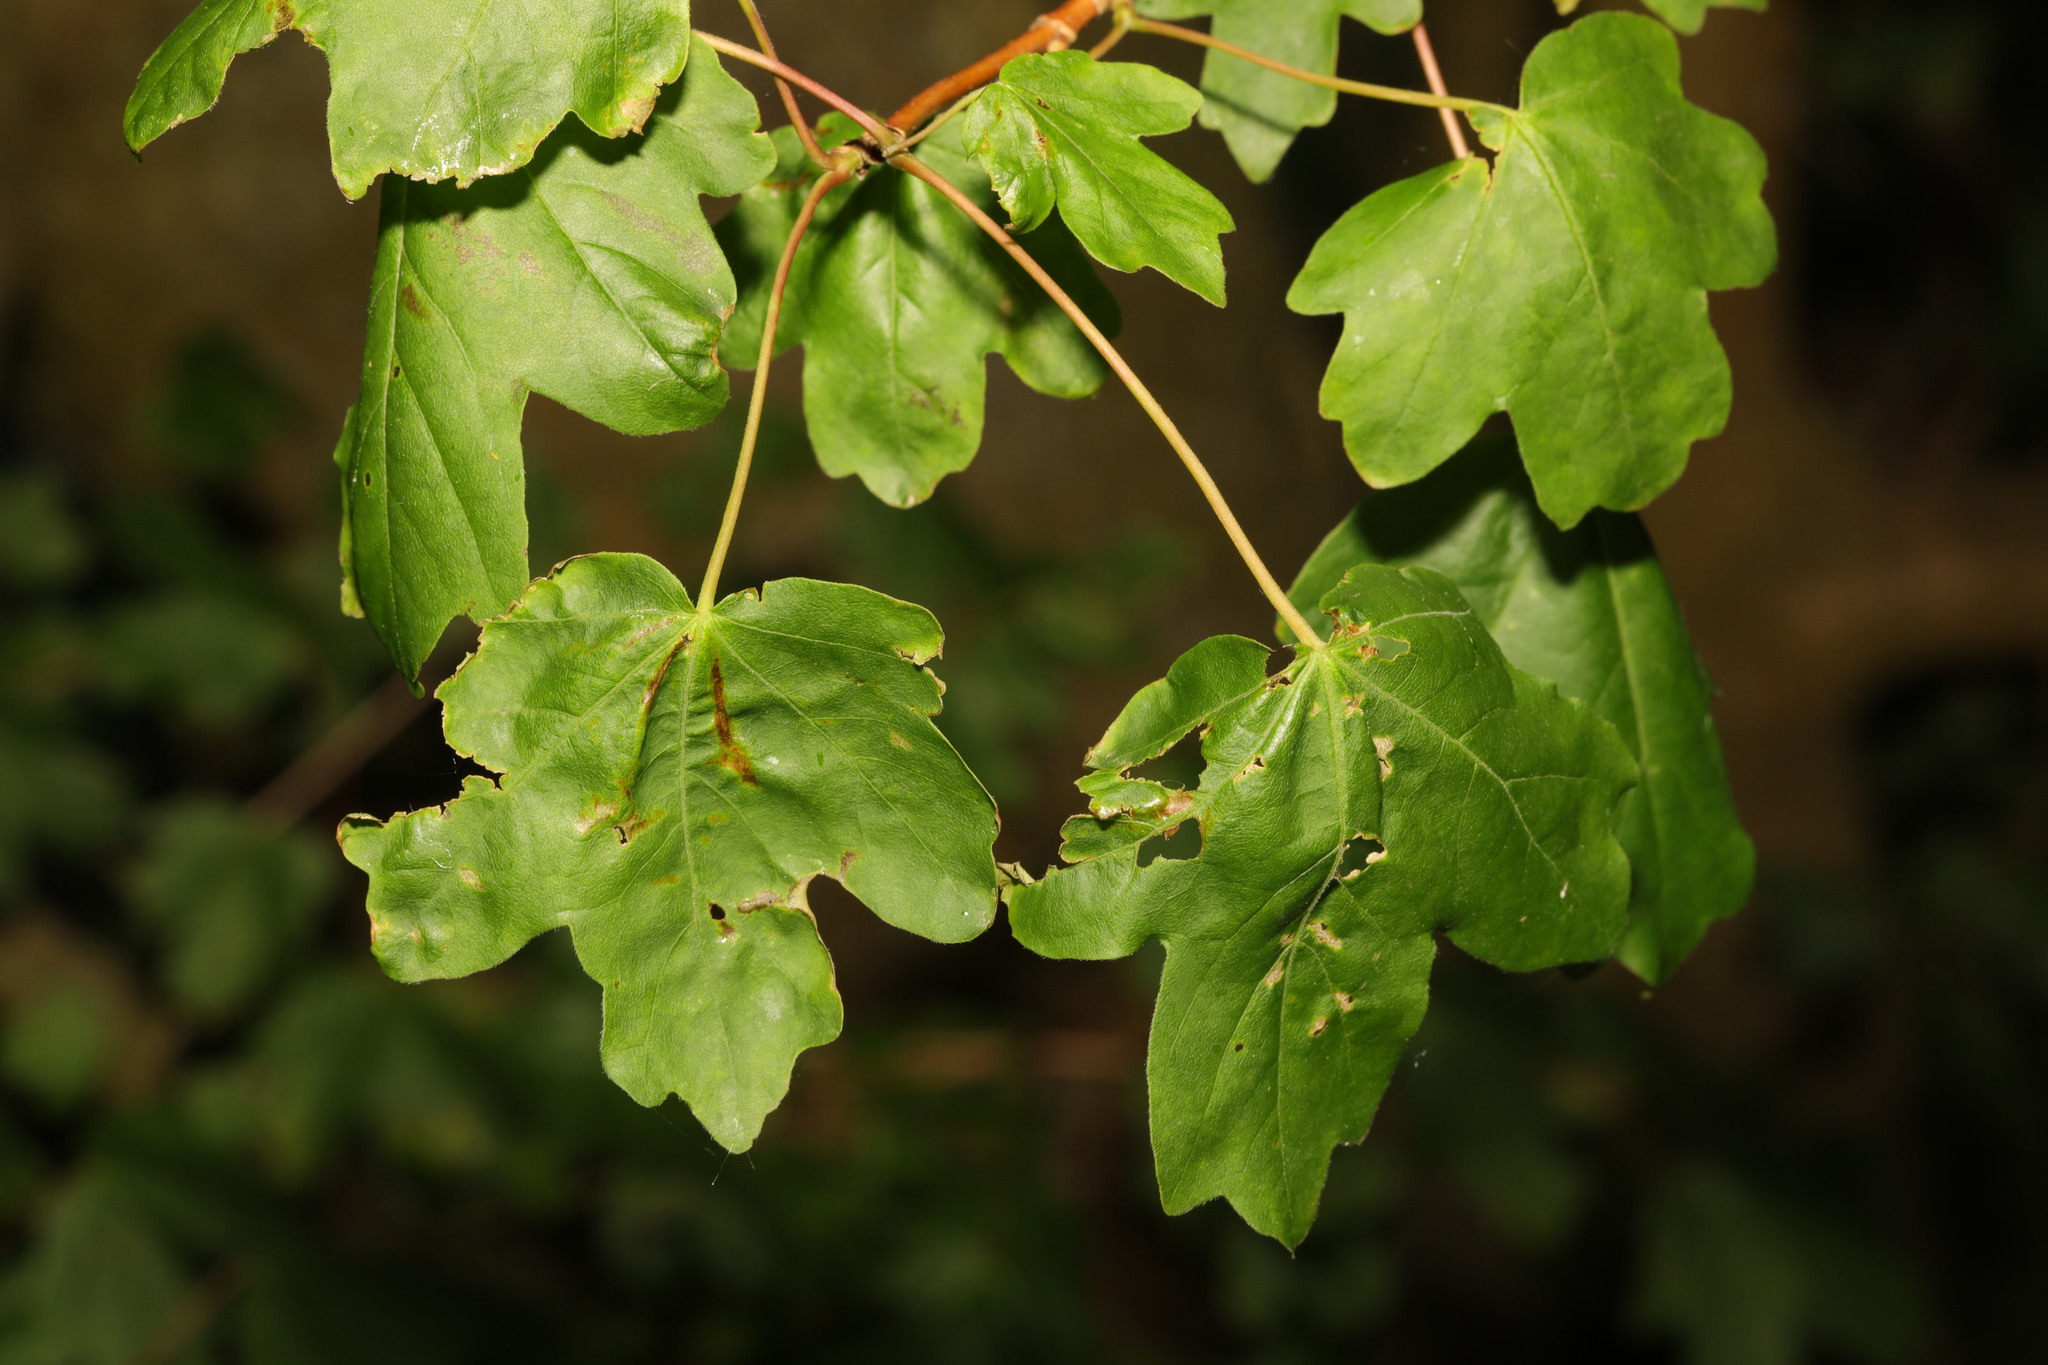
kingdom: Plantae
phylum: Tracheophyta
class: Magnoliopsida
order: Sapindales
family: Sapindaceae
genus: Acer
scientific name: Acer campestre
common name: Field maple
